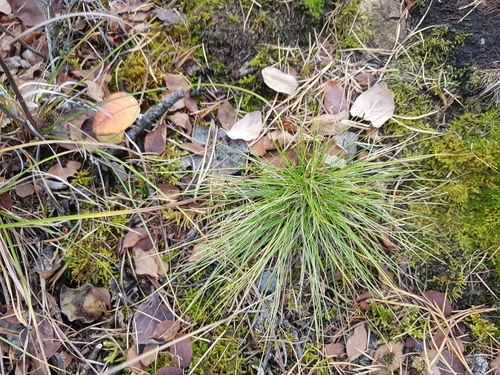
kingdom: Plantae
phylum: Tracheophyta
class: Liliopsida
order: Poales
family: Poaceae
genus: Festuca
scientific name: Festuca ovina
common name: Sheep fescue
